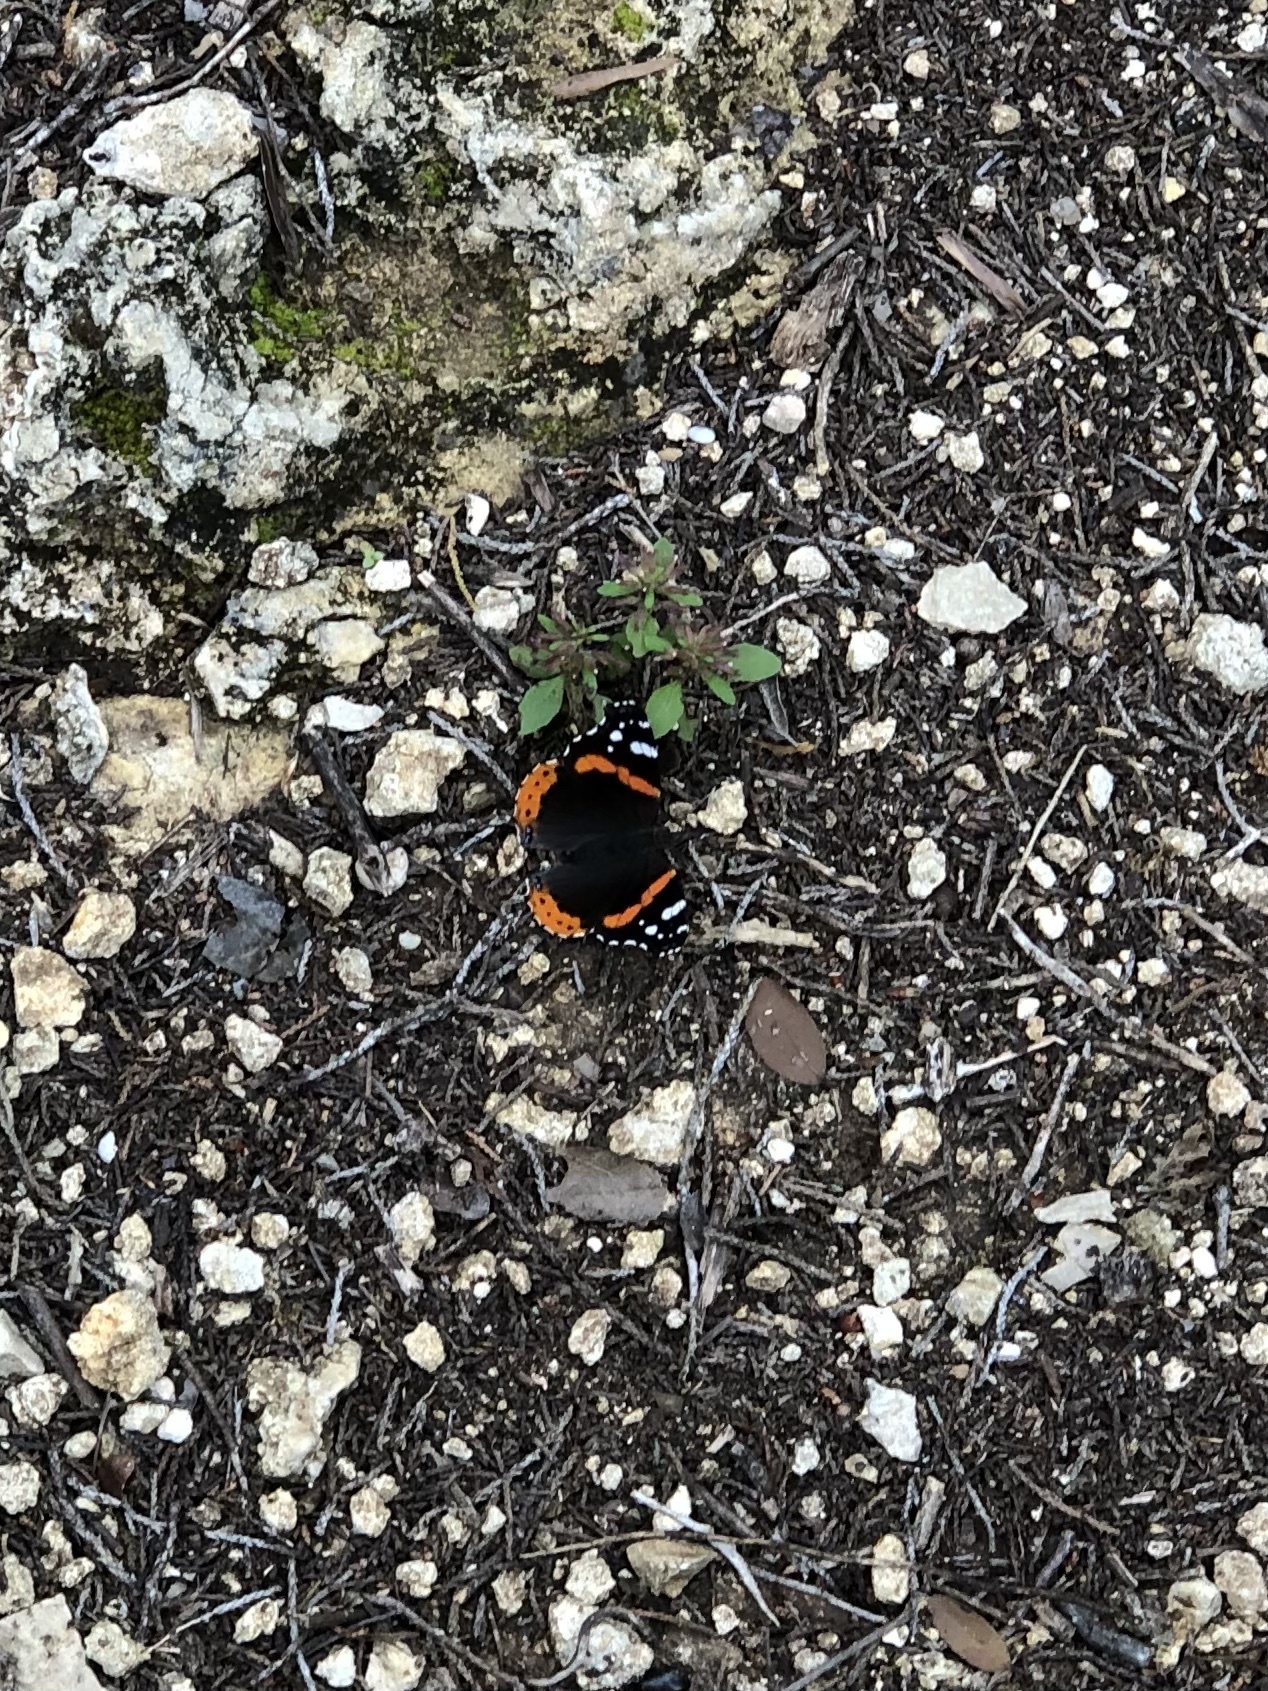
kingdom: Animalia
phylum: Arthropoda
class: Insecta
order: Lepidoptera
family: Nymphalidae
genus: Vanessa
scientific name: Vanessa atalanta
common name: Red admiral
